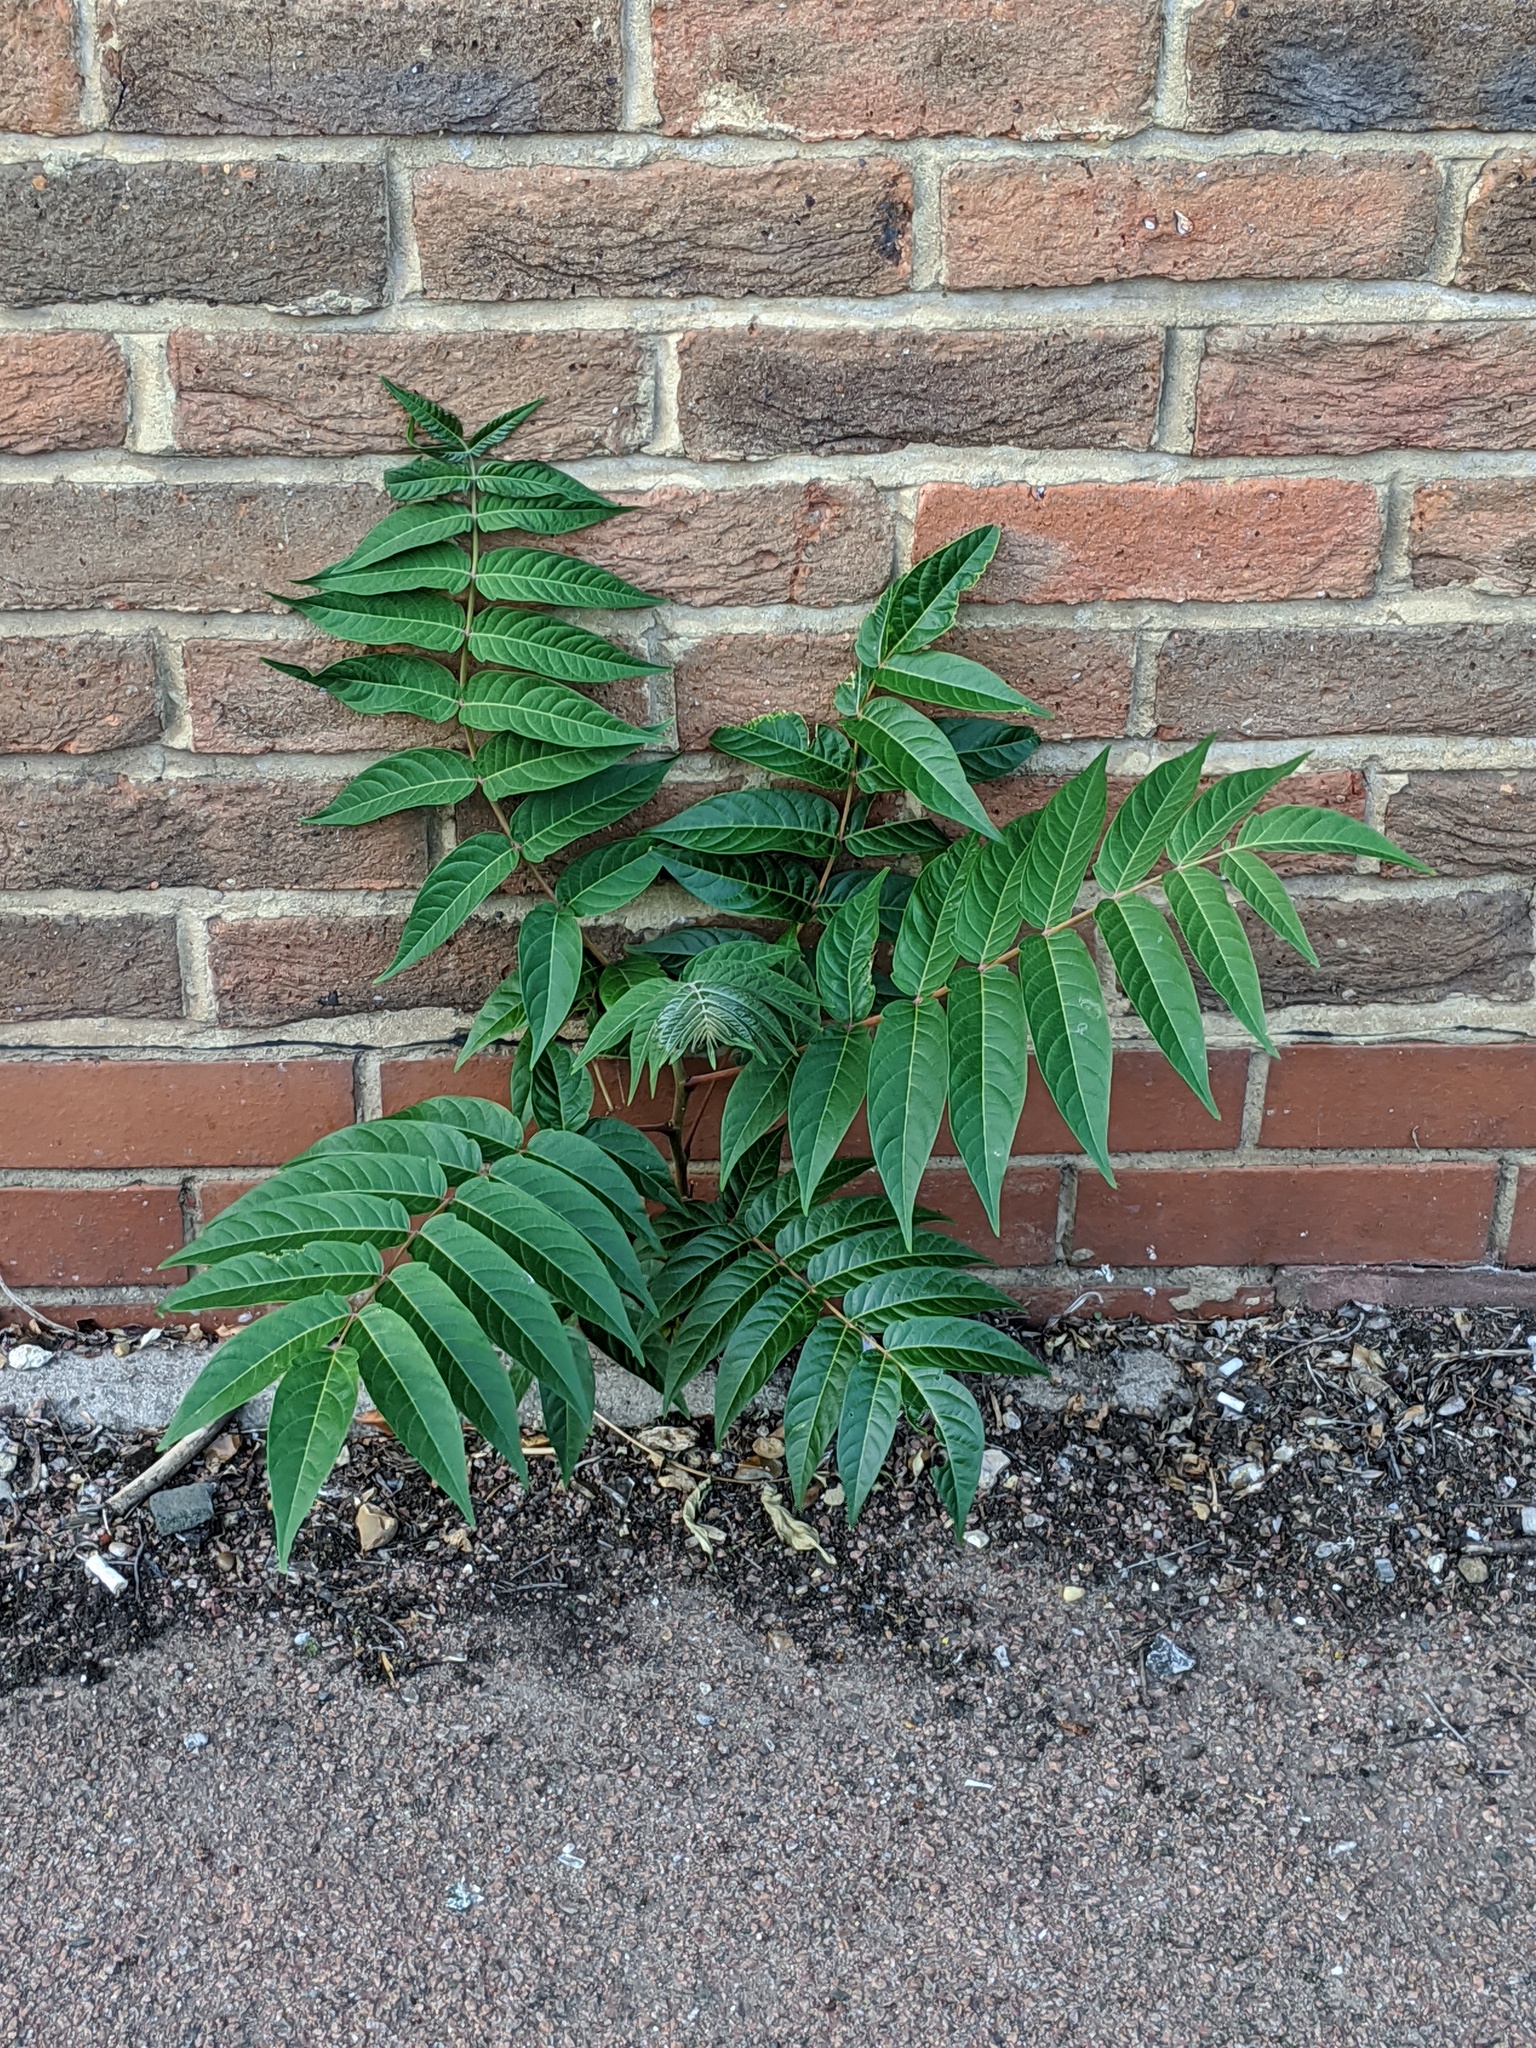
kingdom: Plantae
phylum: Tracheophyta
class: Magnoliopsida
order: Sapindales
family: Simaroubaceae
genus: Ailanthus
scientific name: Ailanthus altissima
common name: Tree-of-heaven
